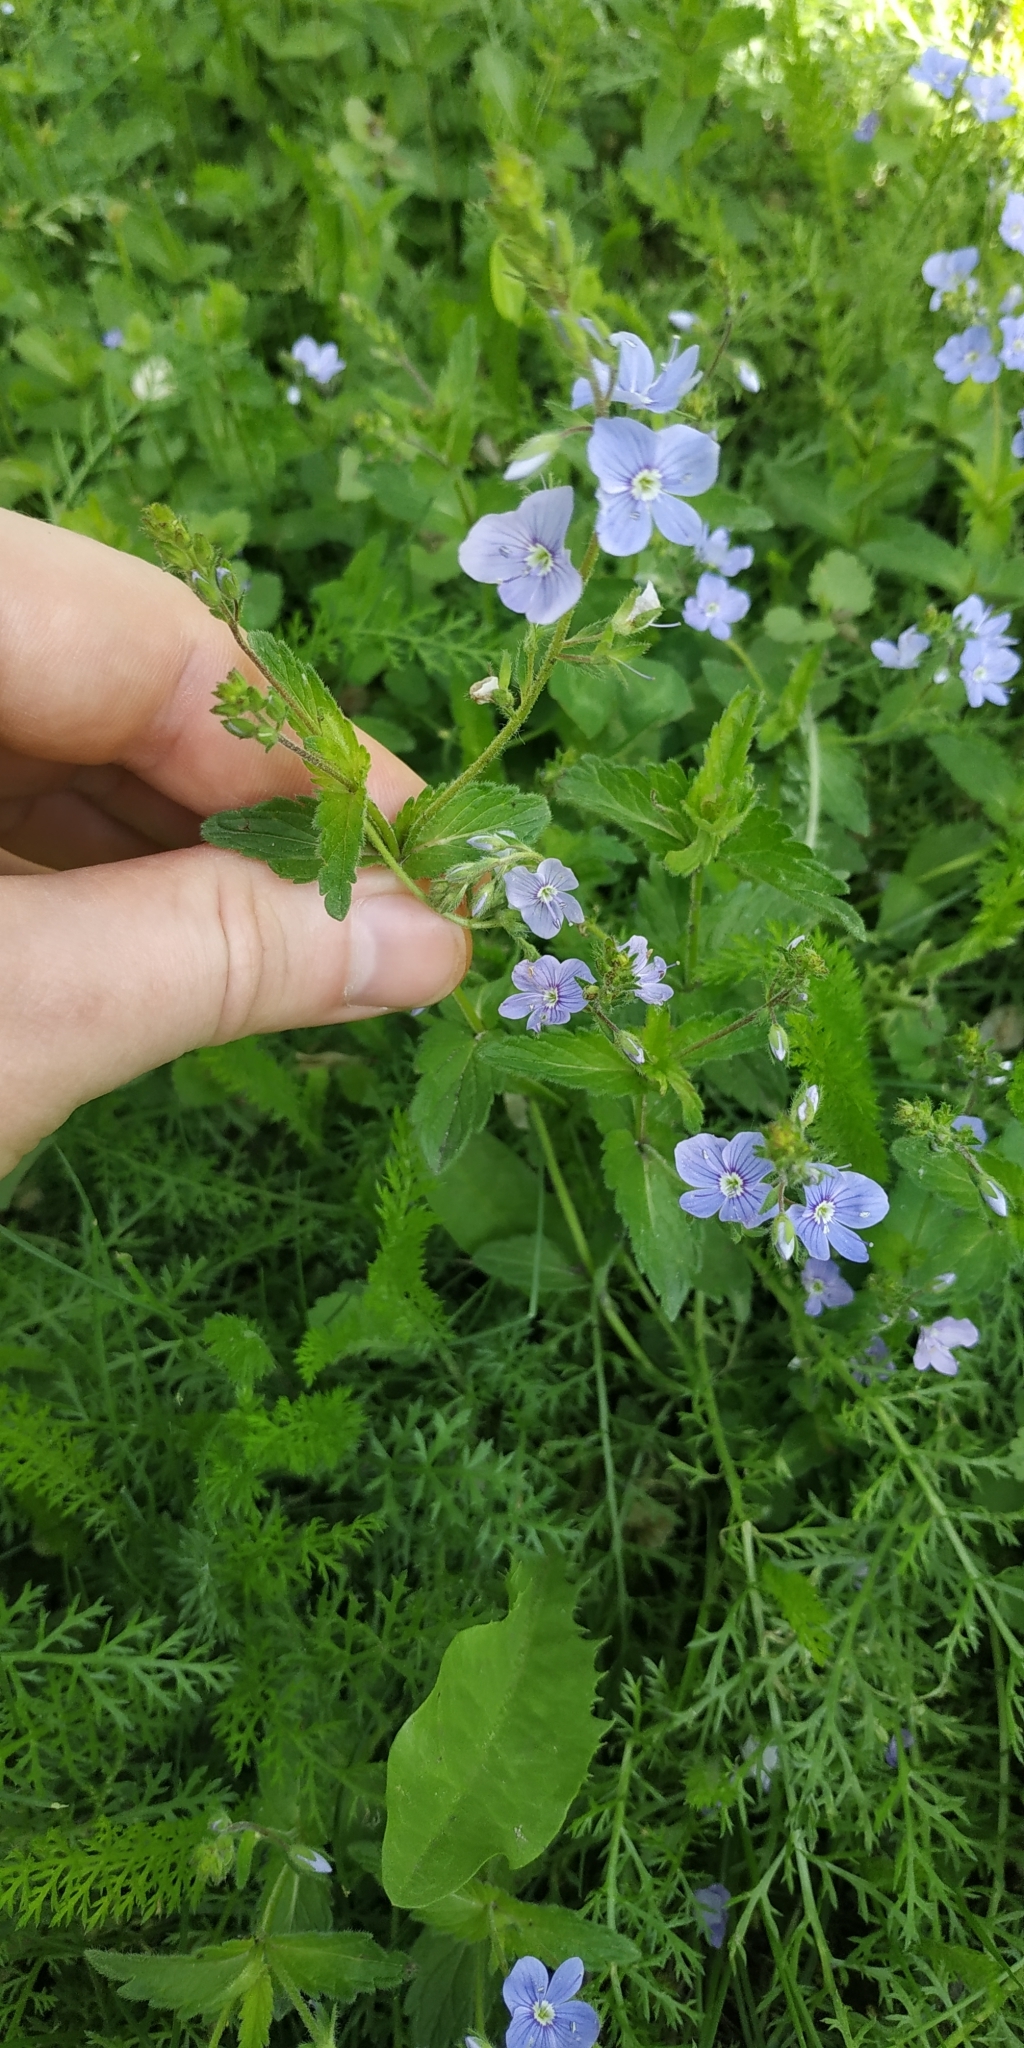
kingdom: Plantae
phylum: Tracheophyta
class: Magnoliopsida
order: Lamiales
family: Plantaginaceae
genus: Veronica
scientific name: Veronica chamaedrys
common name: Germander speedwell
